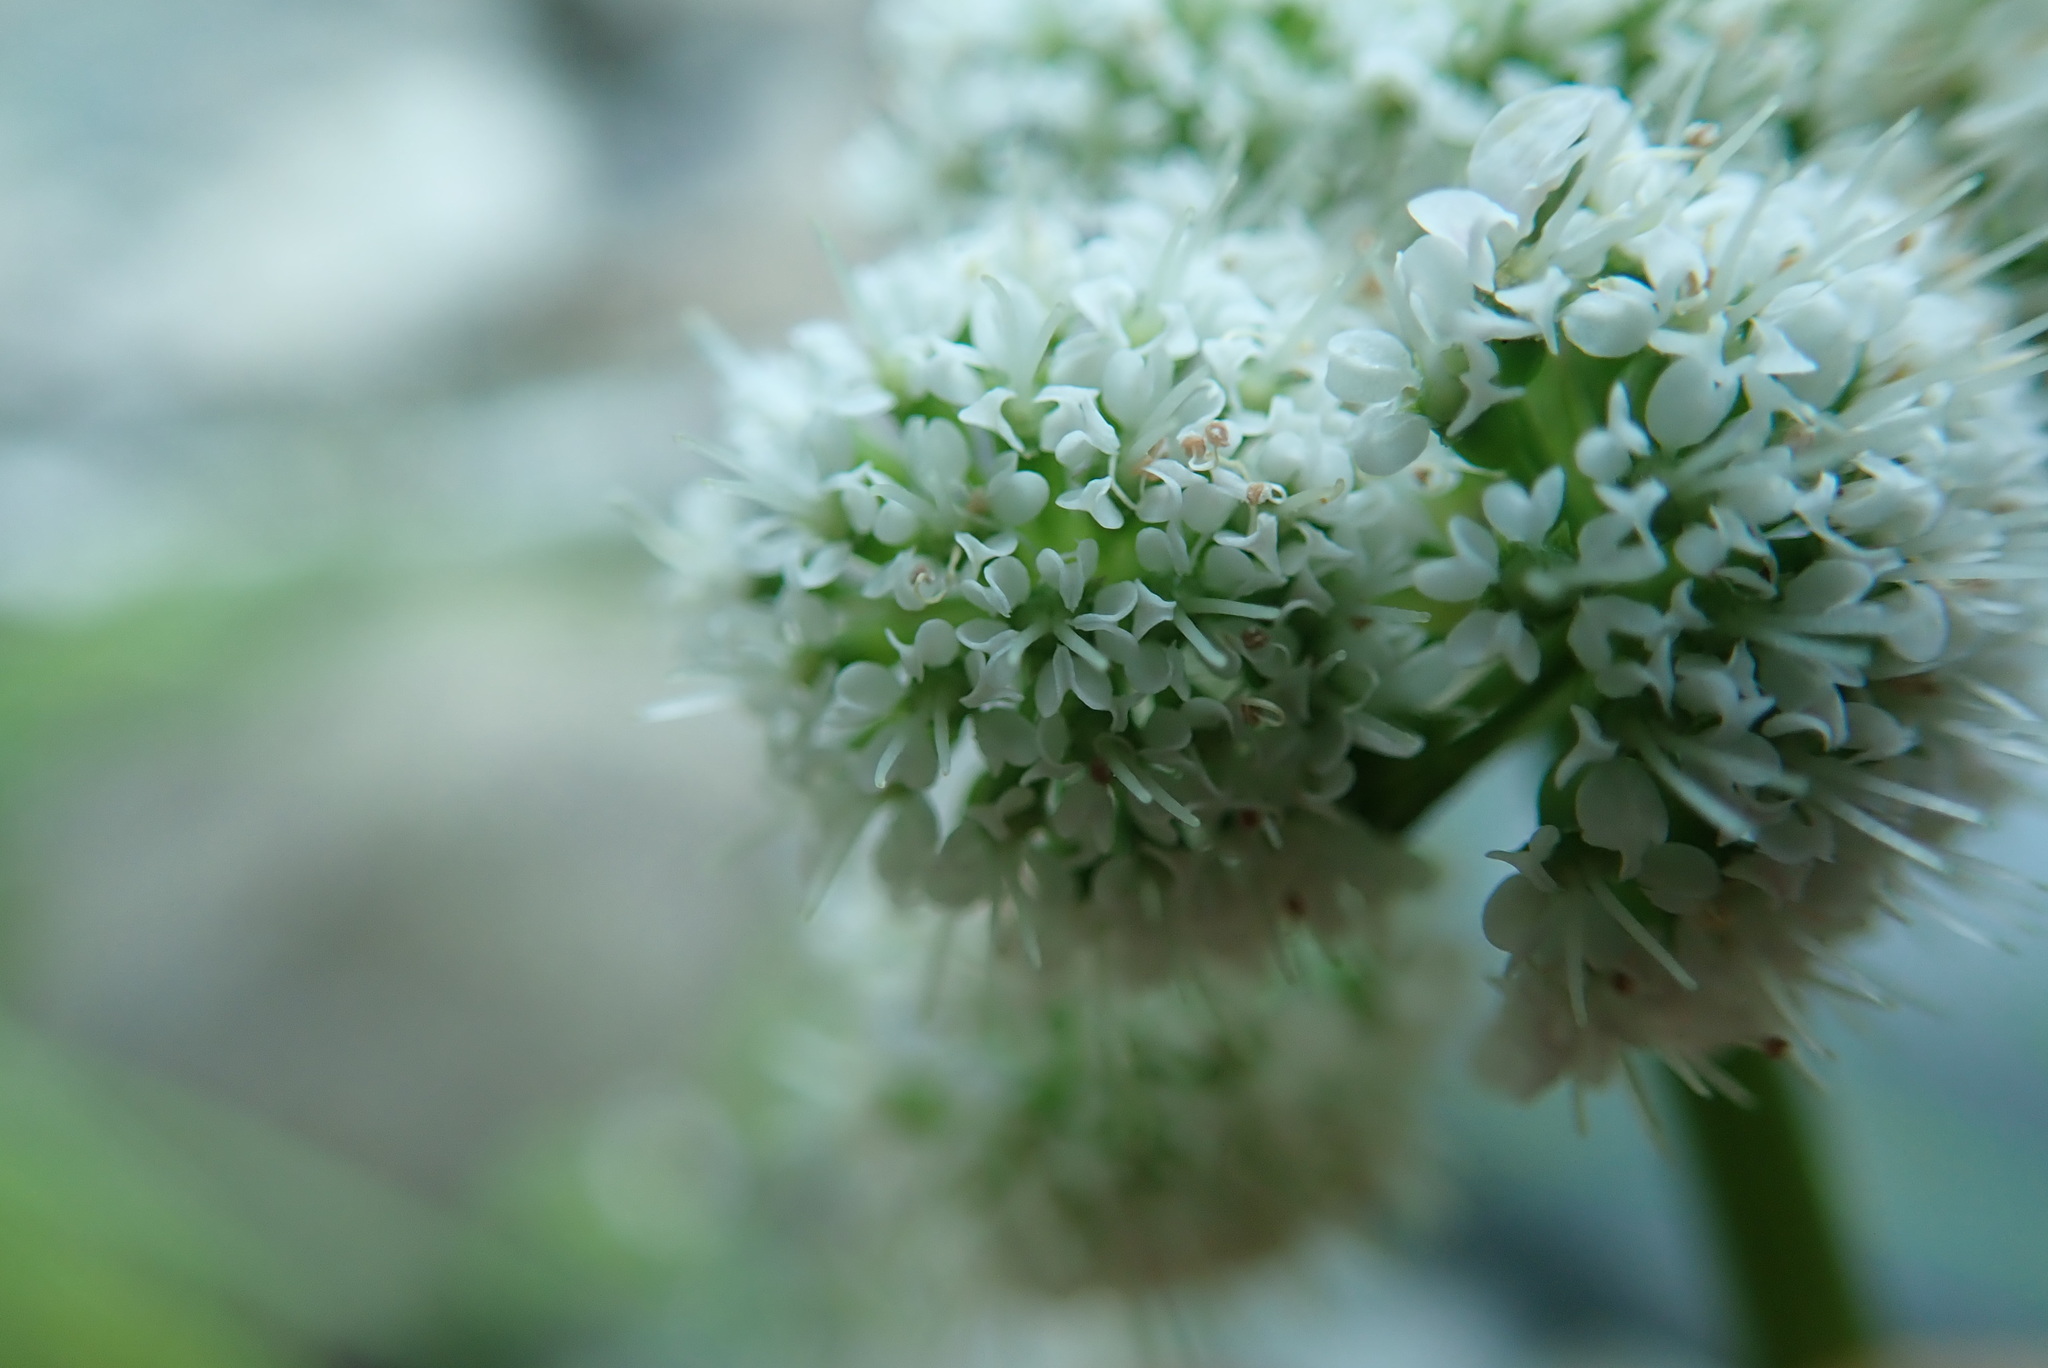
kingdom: Plantae
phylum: Tracheophyta
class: Magnoliopsida
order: Apiales
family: Apiaceae
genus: Oenanthe
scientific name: Oenanthe sarmentosa
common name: American water-parsley
